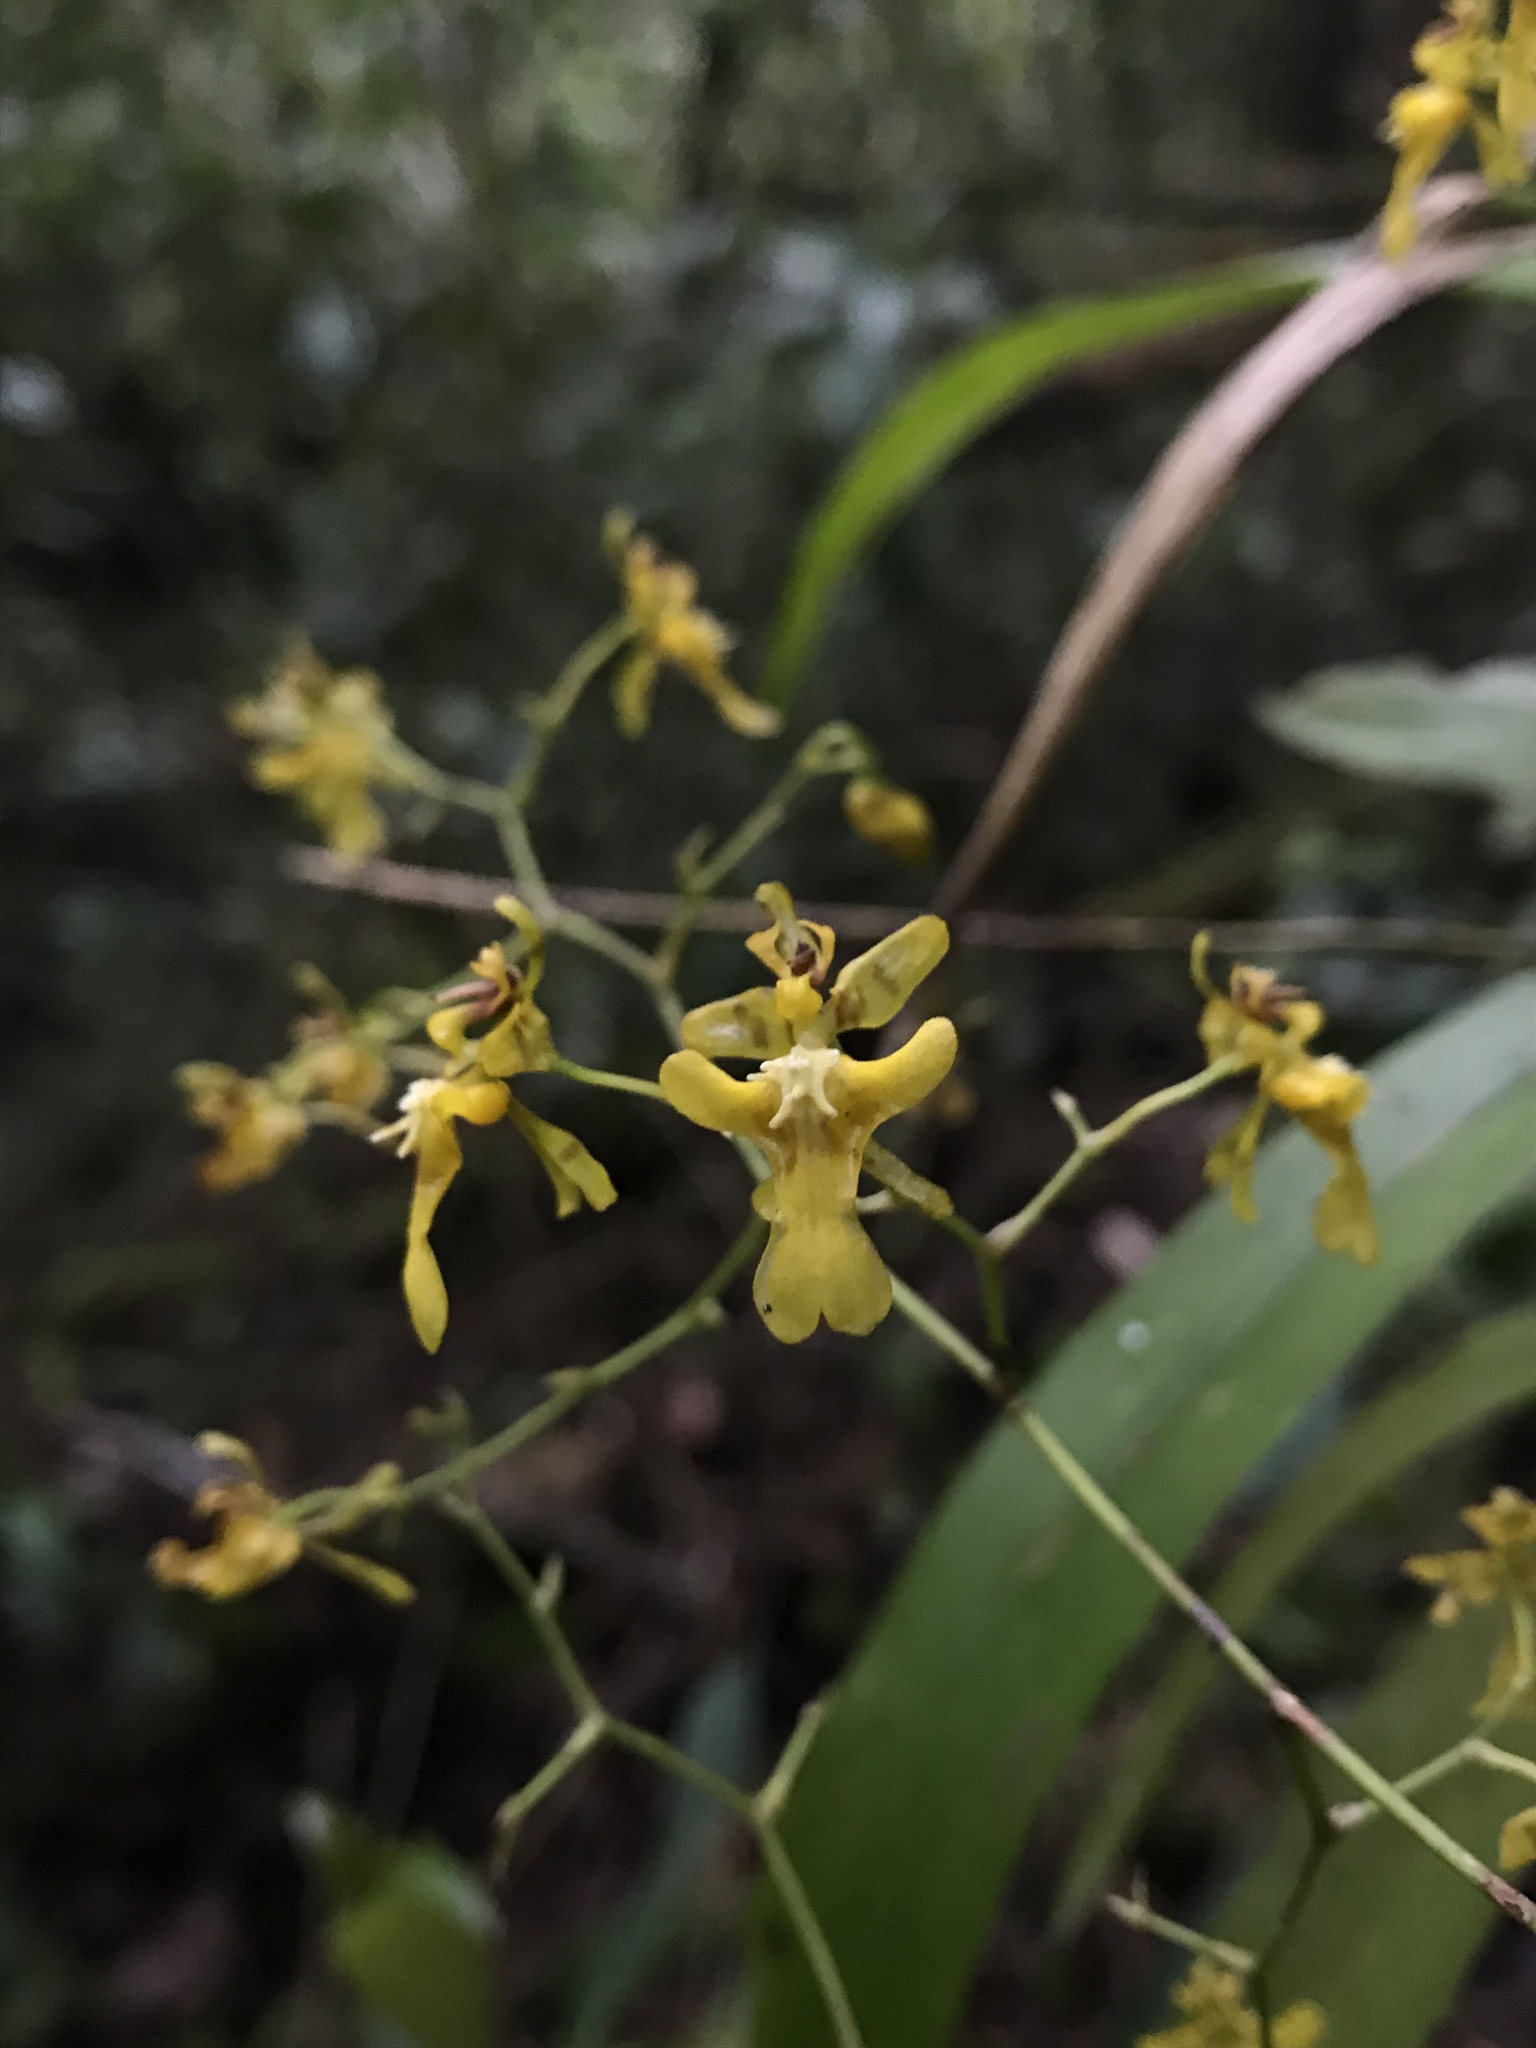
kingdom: Plantae
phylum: Tracheophyta
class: Liliopsida
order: Asparagales
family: Orchidaceae
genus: Oncidium
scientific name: Oncidium ornithorhynchum
